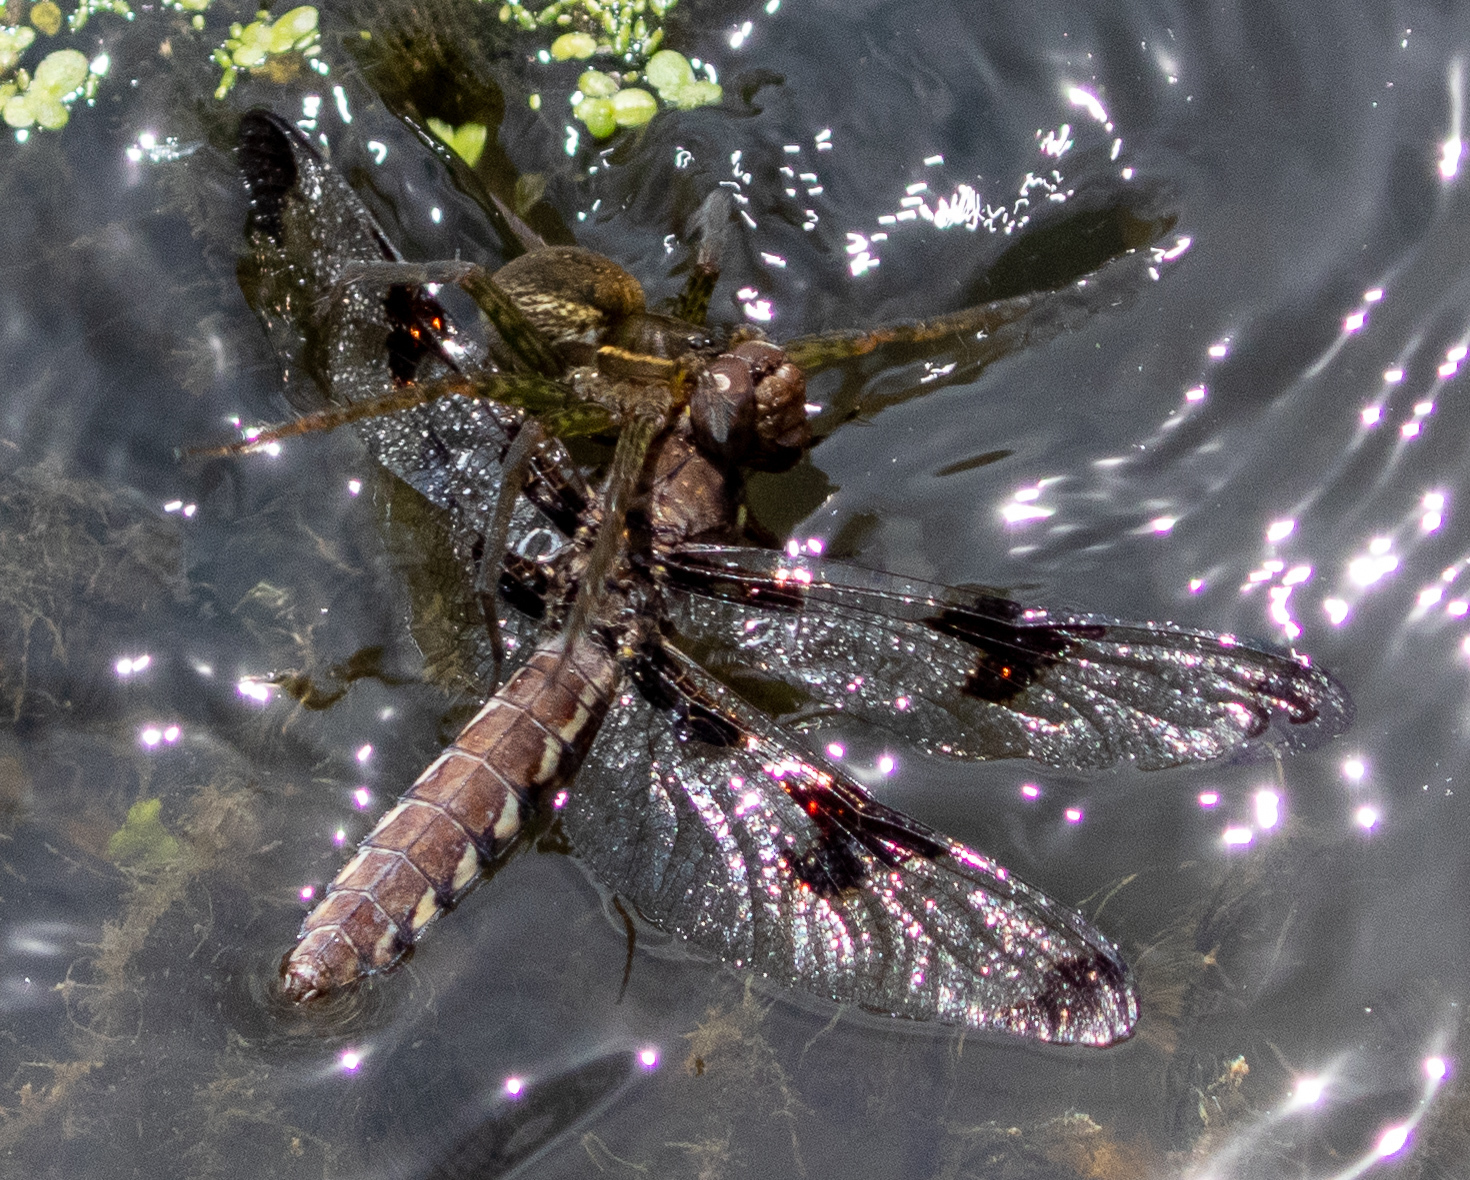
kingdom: Animalia
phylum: Arthropoda
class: Insecta
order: Odonata
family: Libellulidae
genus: Plathemis
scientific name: Plathemis lydia
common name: Common whitetail
